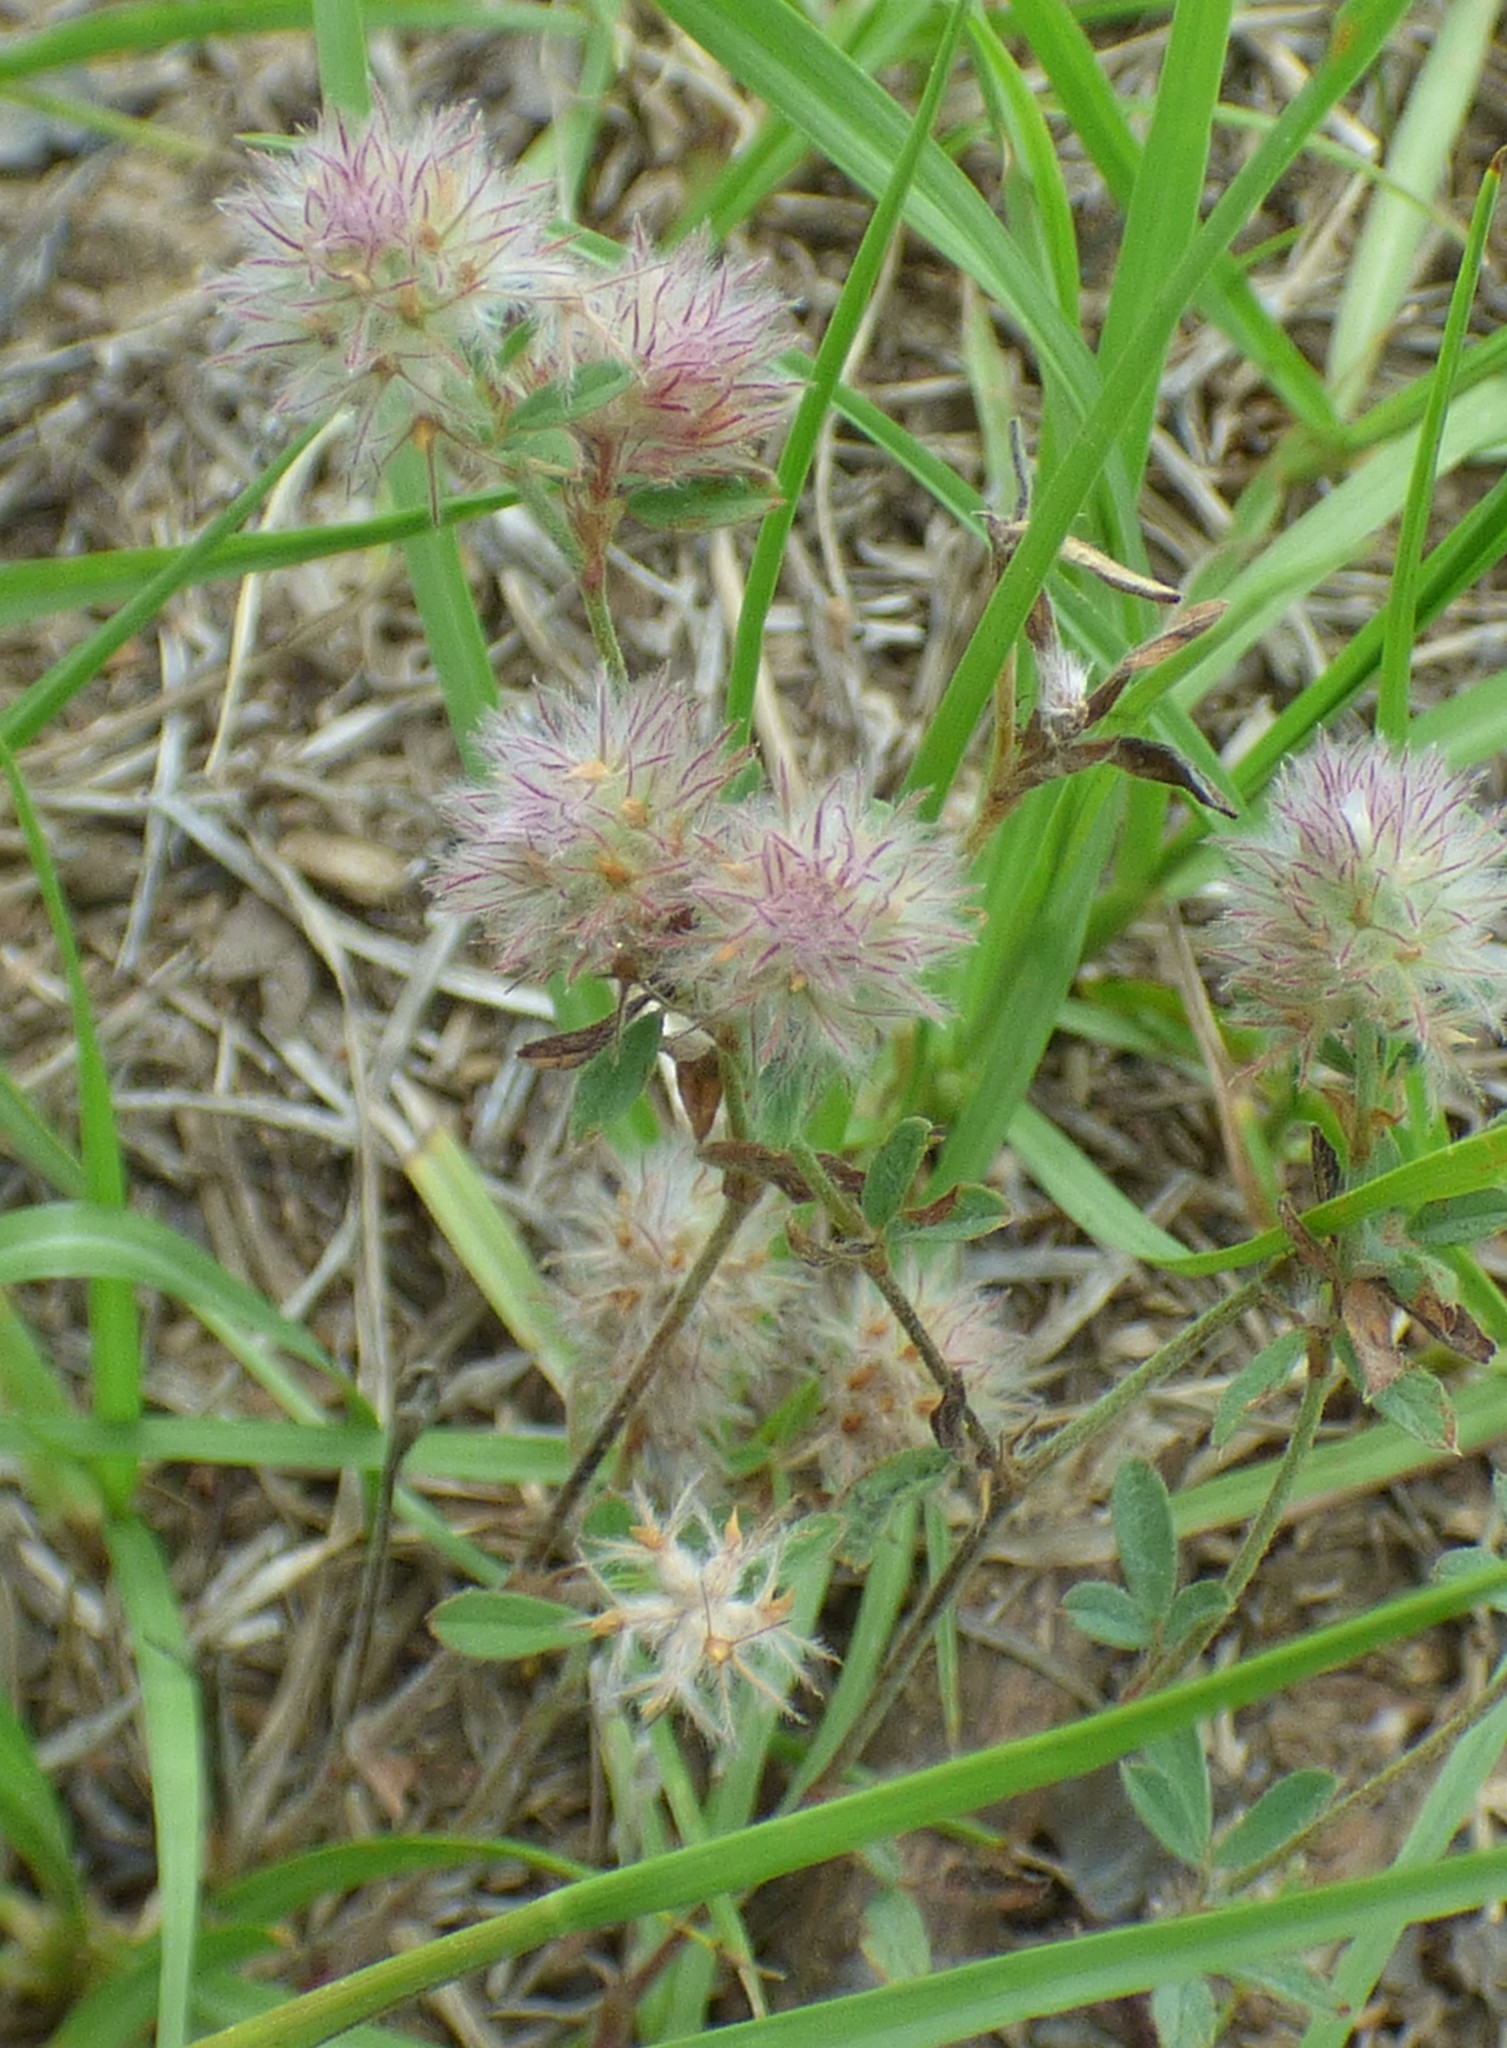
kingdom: Plantae
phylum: Tracheophyta
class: Magnoliopsida
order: Fabales
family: Fabaceae
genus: Trifolium
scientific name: Trifolium arvense
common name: Hare's-foot clover
